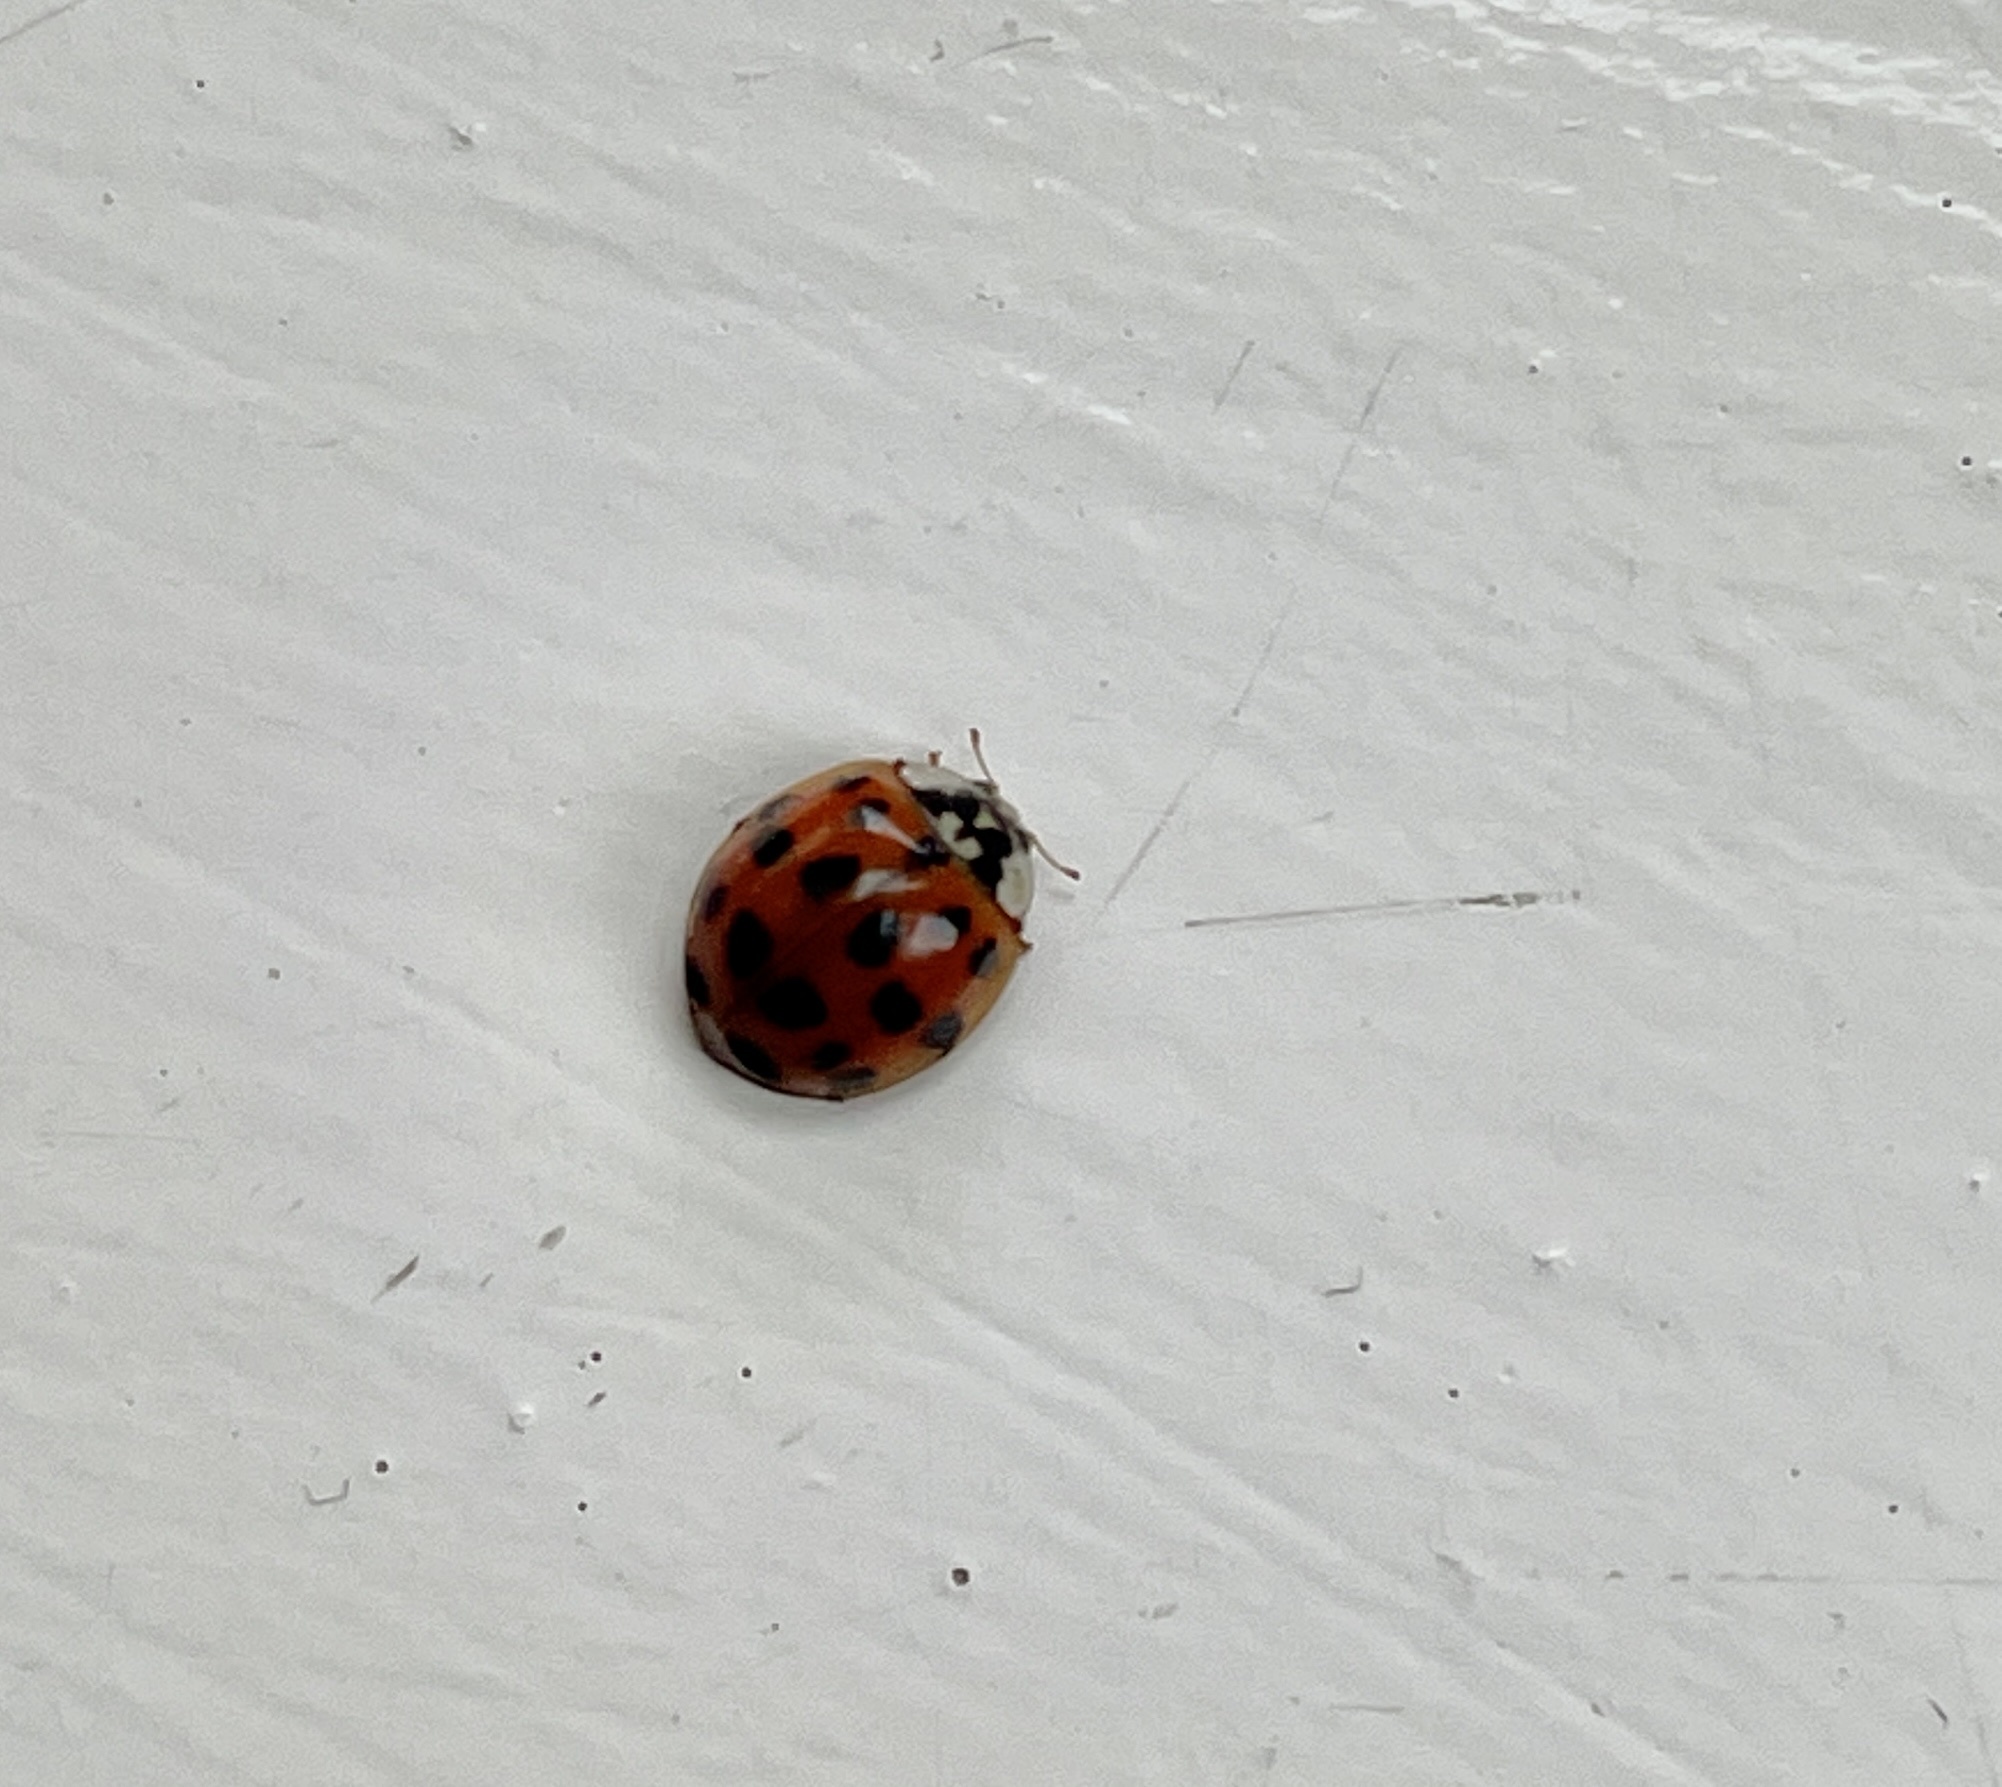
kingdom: Animalia
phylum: Arthropoda
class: Insecta
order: Coleoptera
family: Coccinellidae
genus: Harmonia
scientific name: Harmonia axyridis
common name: Harlequin ladybird
